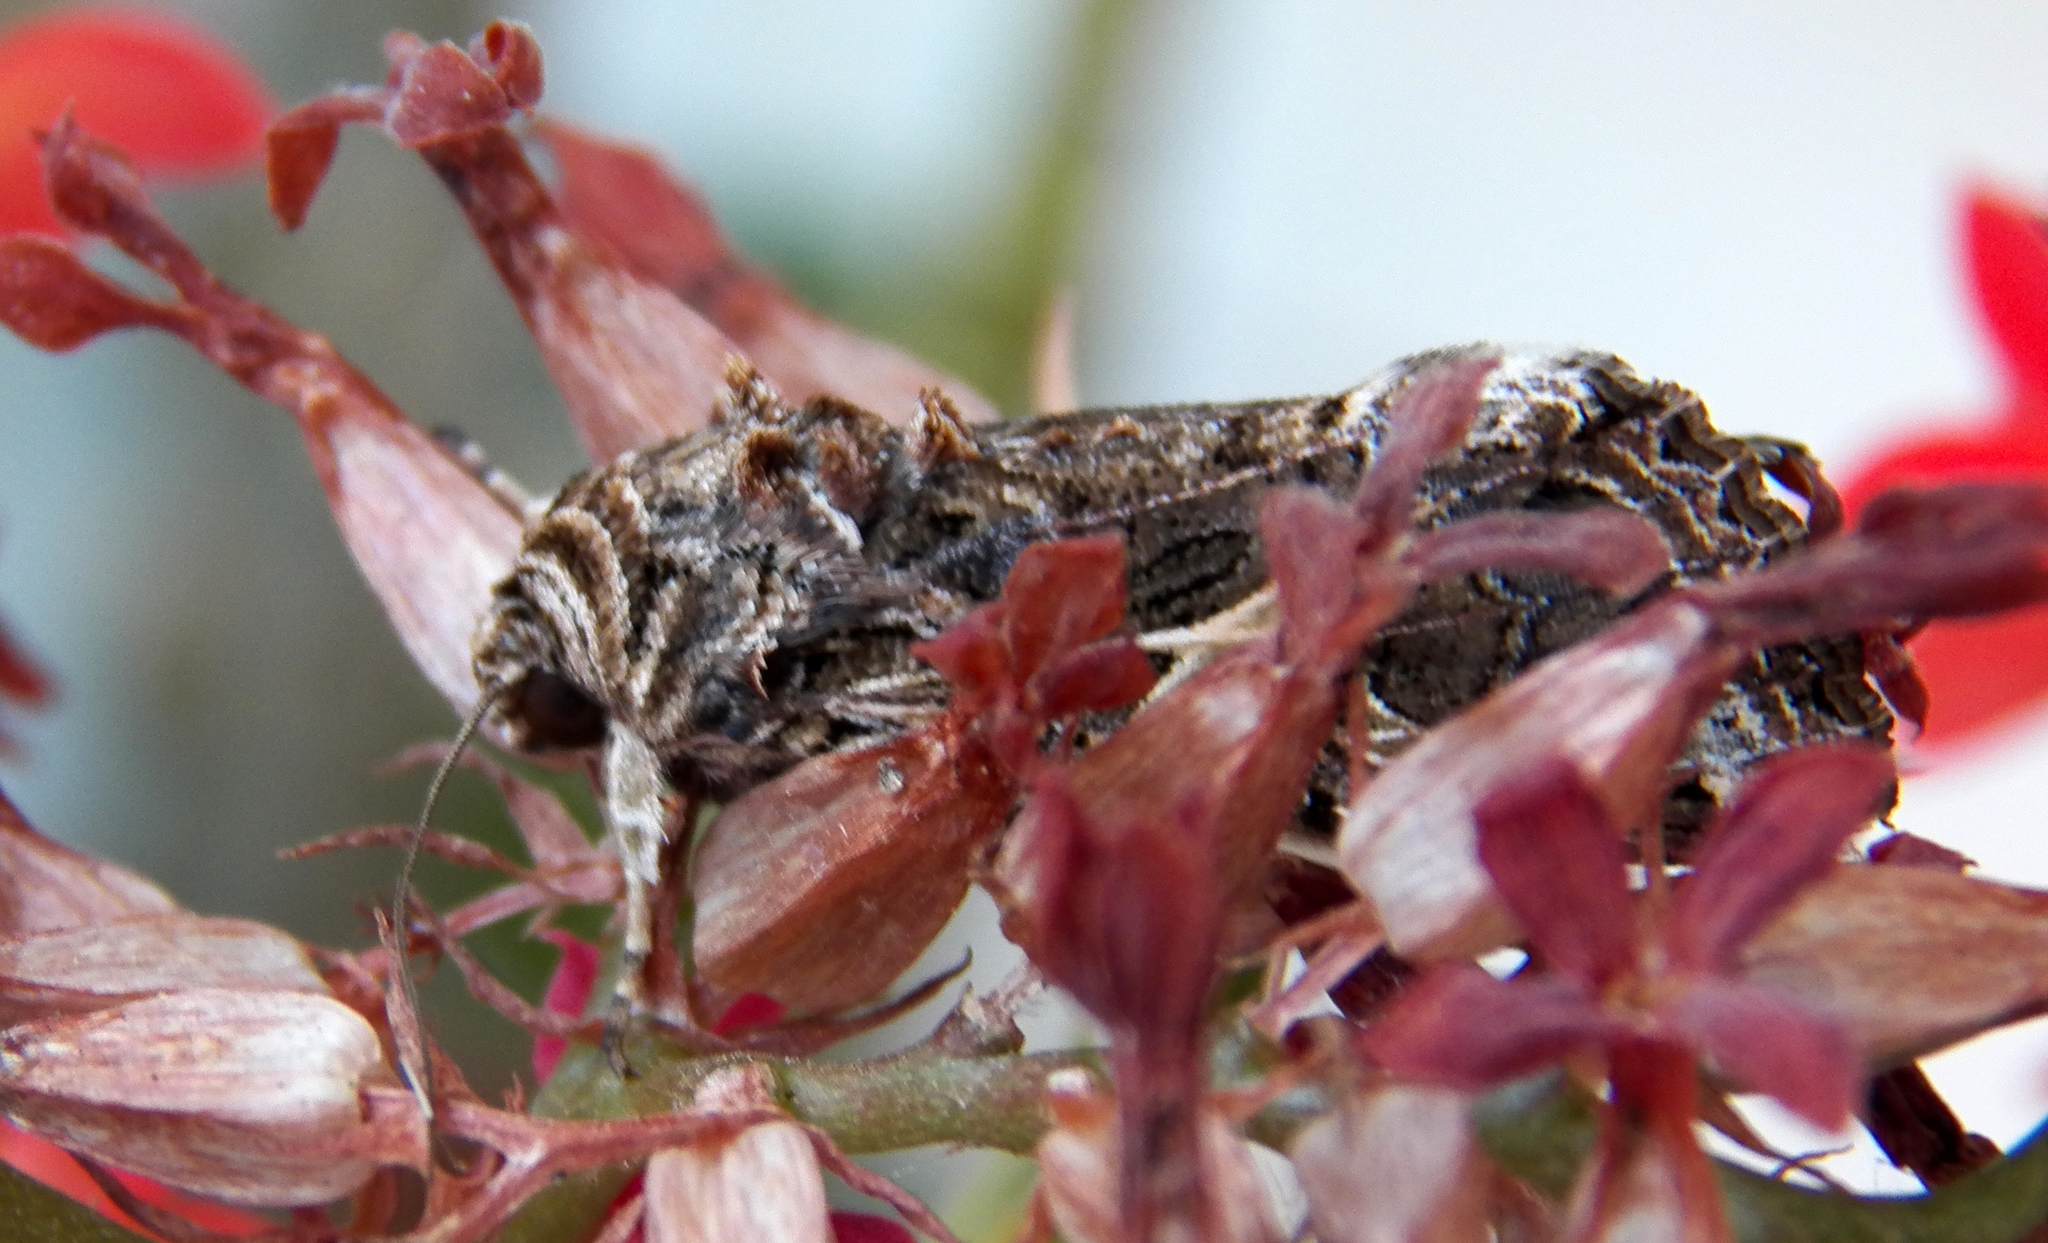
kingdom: Animalia
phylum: Arthropoda
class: Insecta
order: Lepidoptera
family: Noctuidae
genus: Spodoptera
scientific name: Spodoptera ornithogalli
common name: Yellow-striped armyworm
